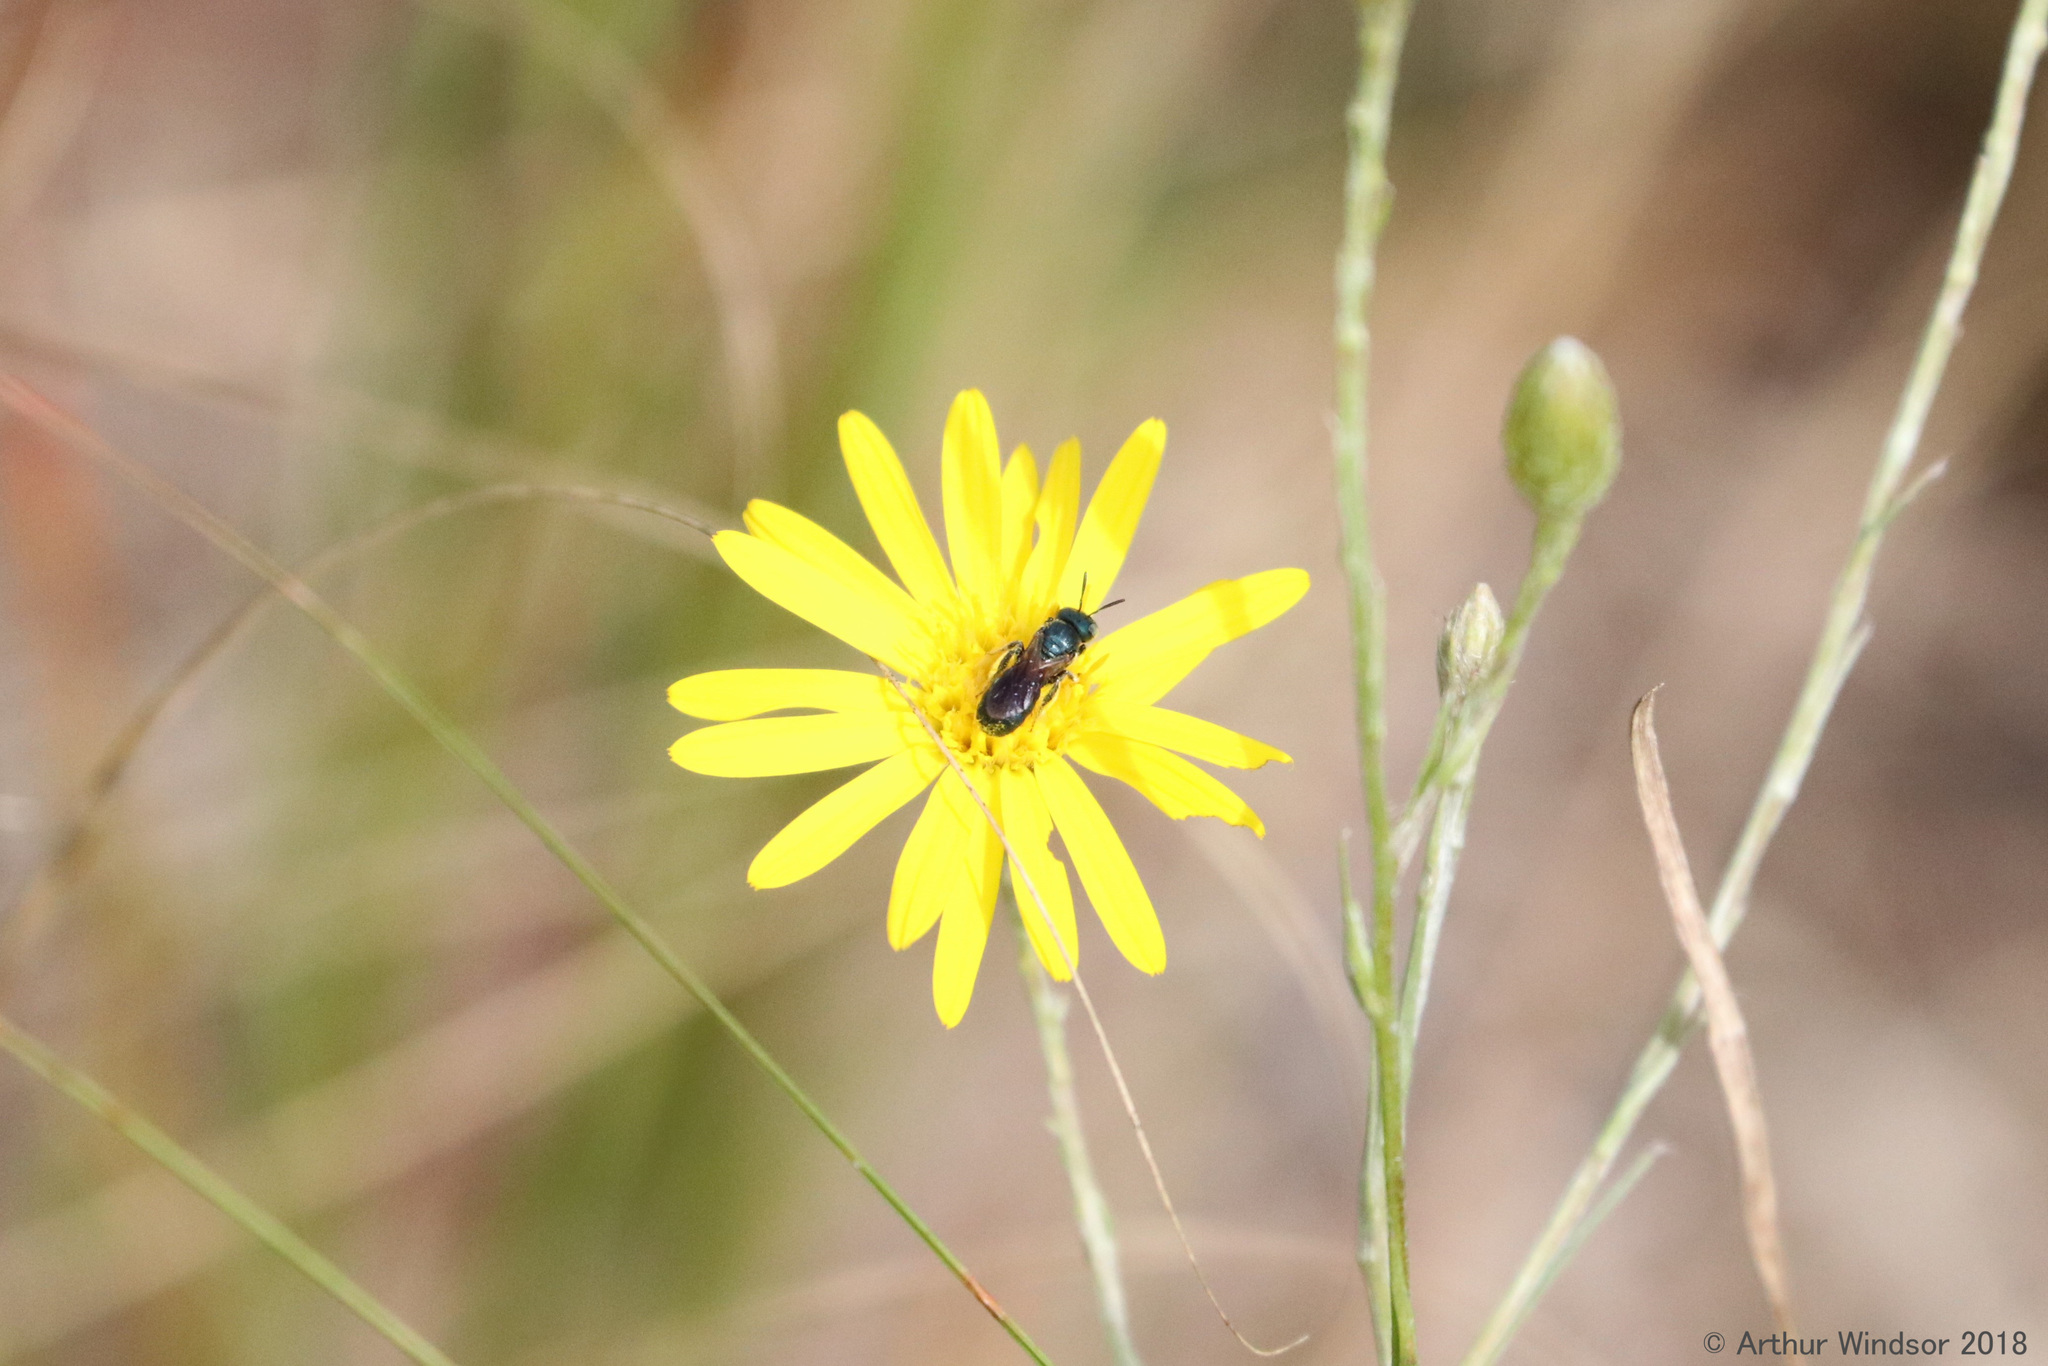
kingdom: Animalia
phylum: Arthropoda
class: Insecta
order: Hymenoptera
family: Apidae
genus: Ceratina
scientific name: Ceratina floridana
